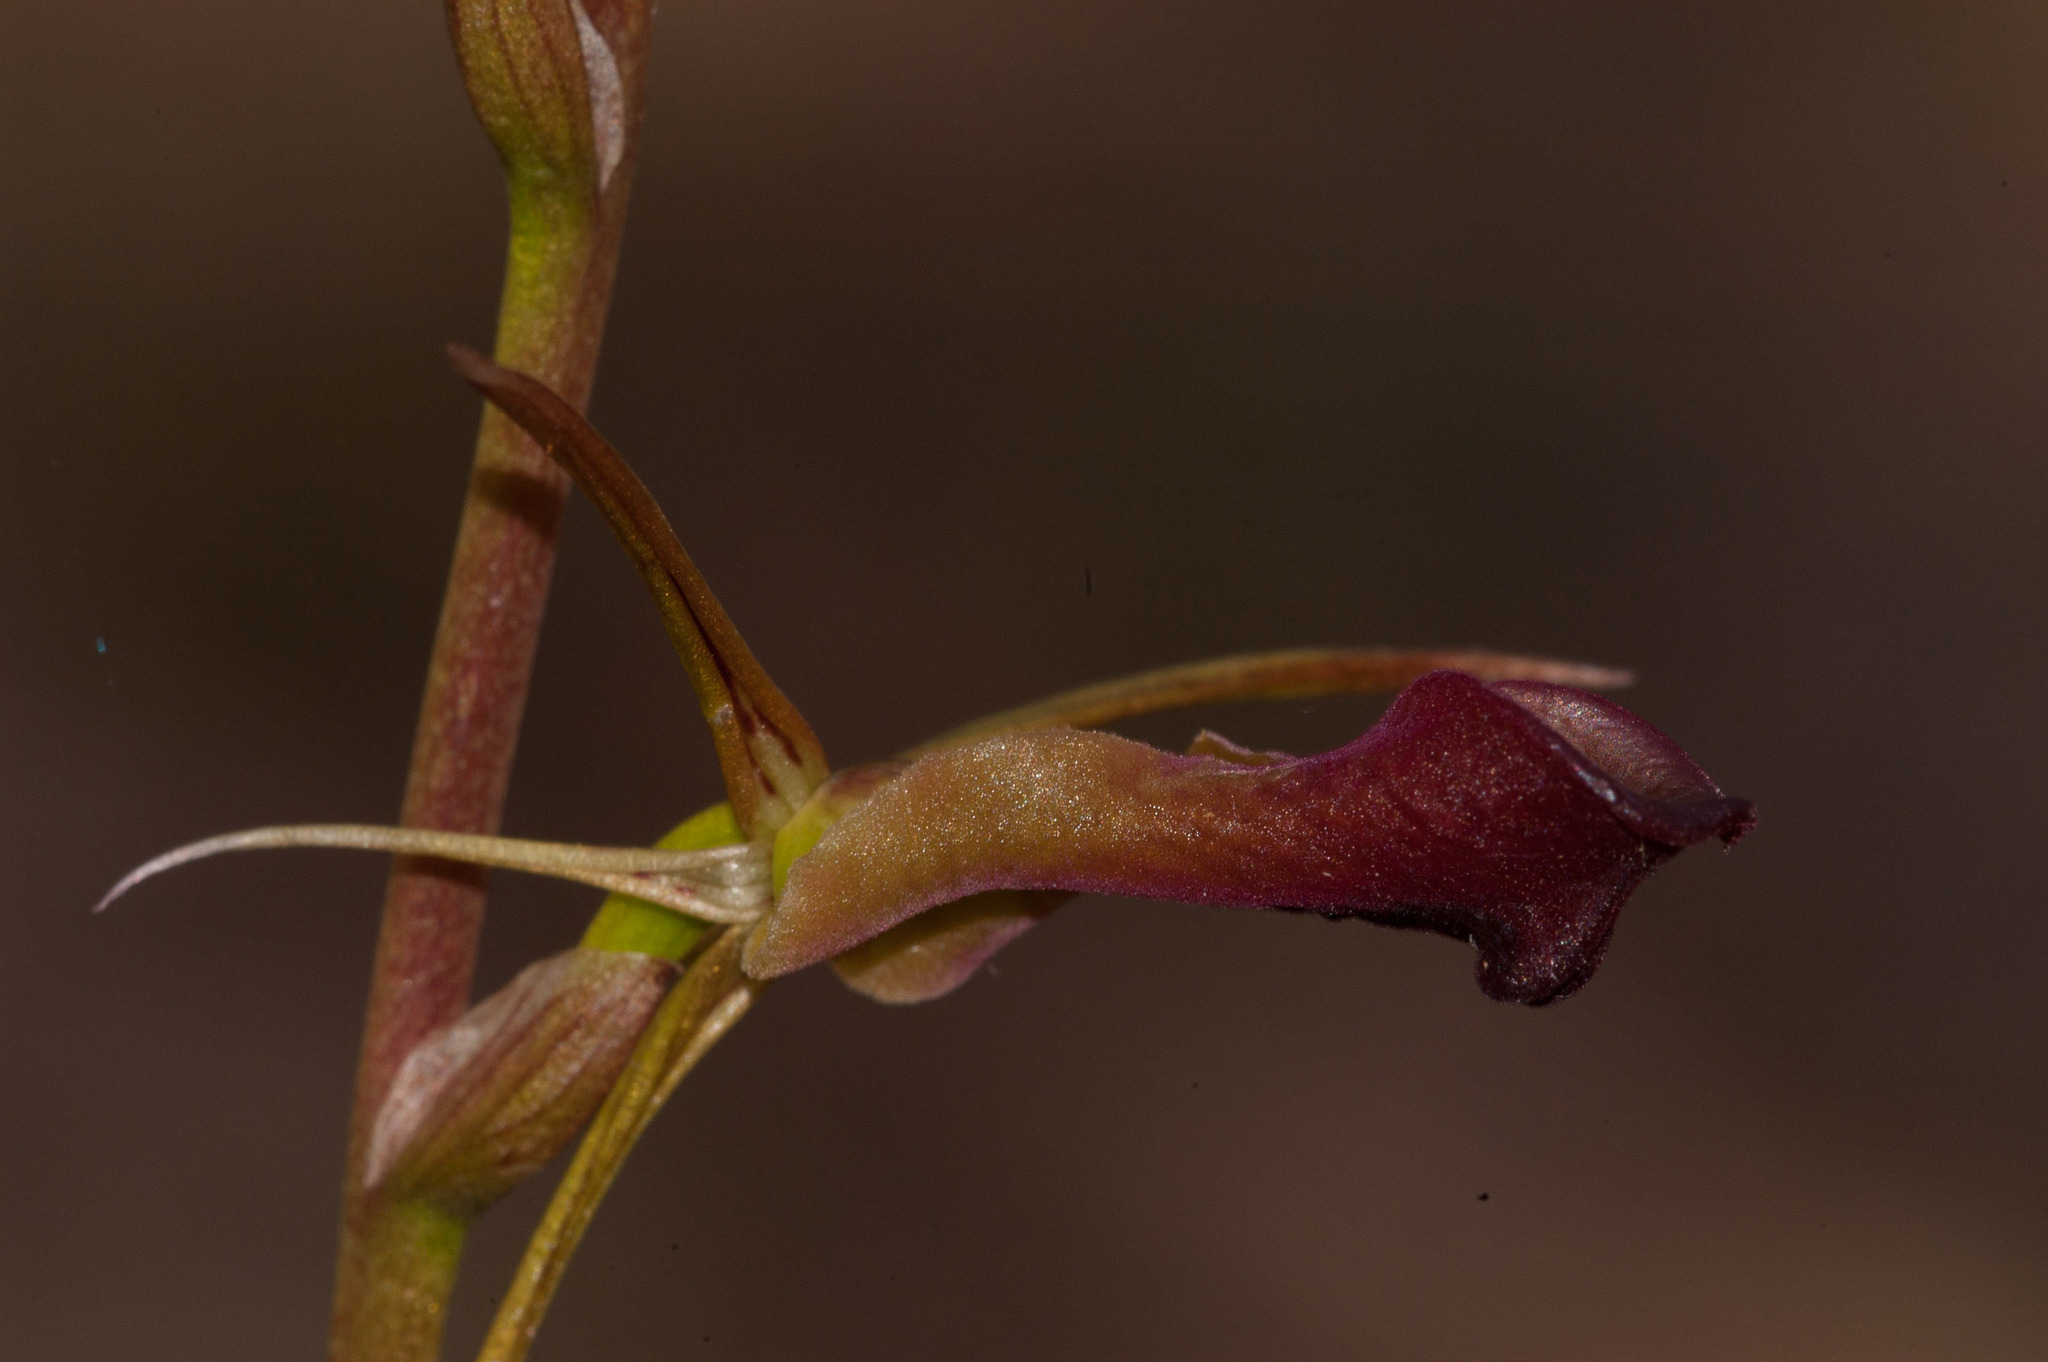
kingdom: Plantae
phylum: Tracheophyta
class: Liliopsida
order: Asparagales
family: Orchidaceae
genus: Cryptostylis
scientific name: Cryptostylis subulata
